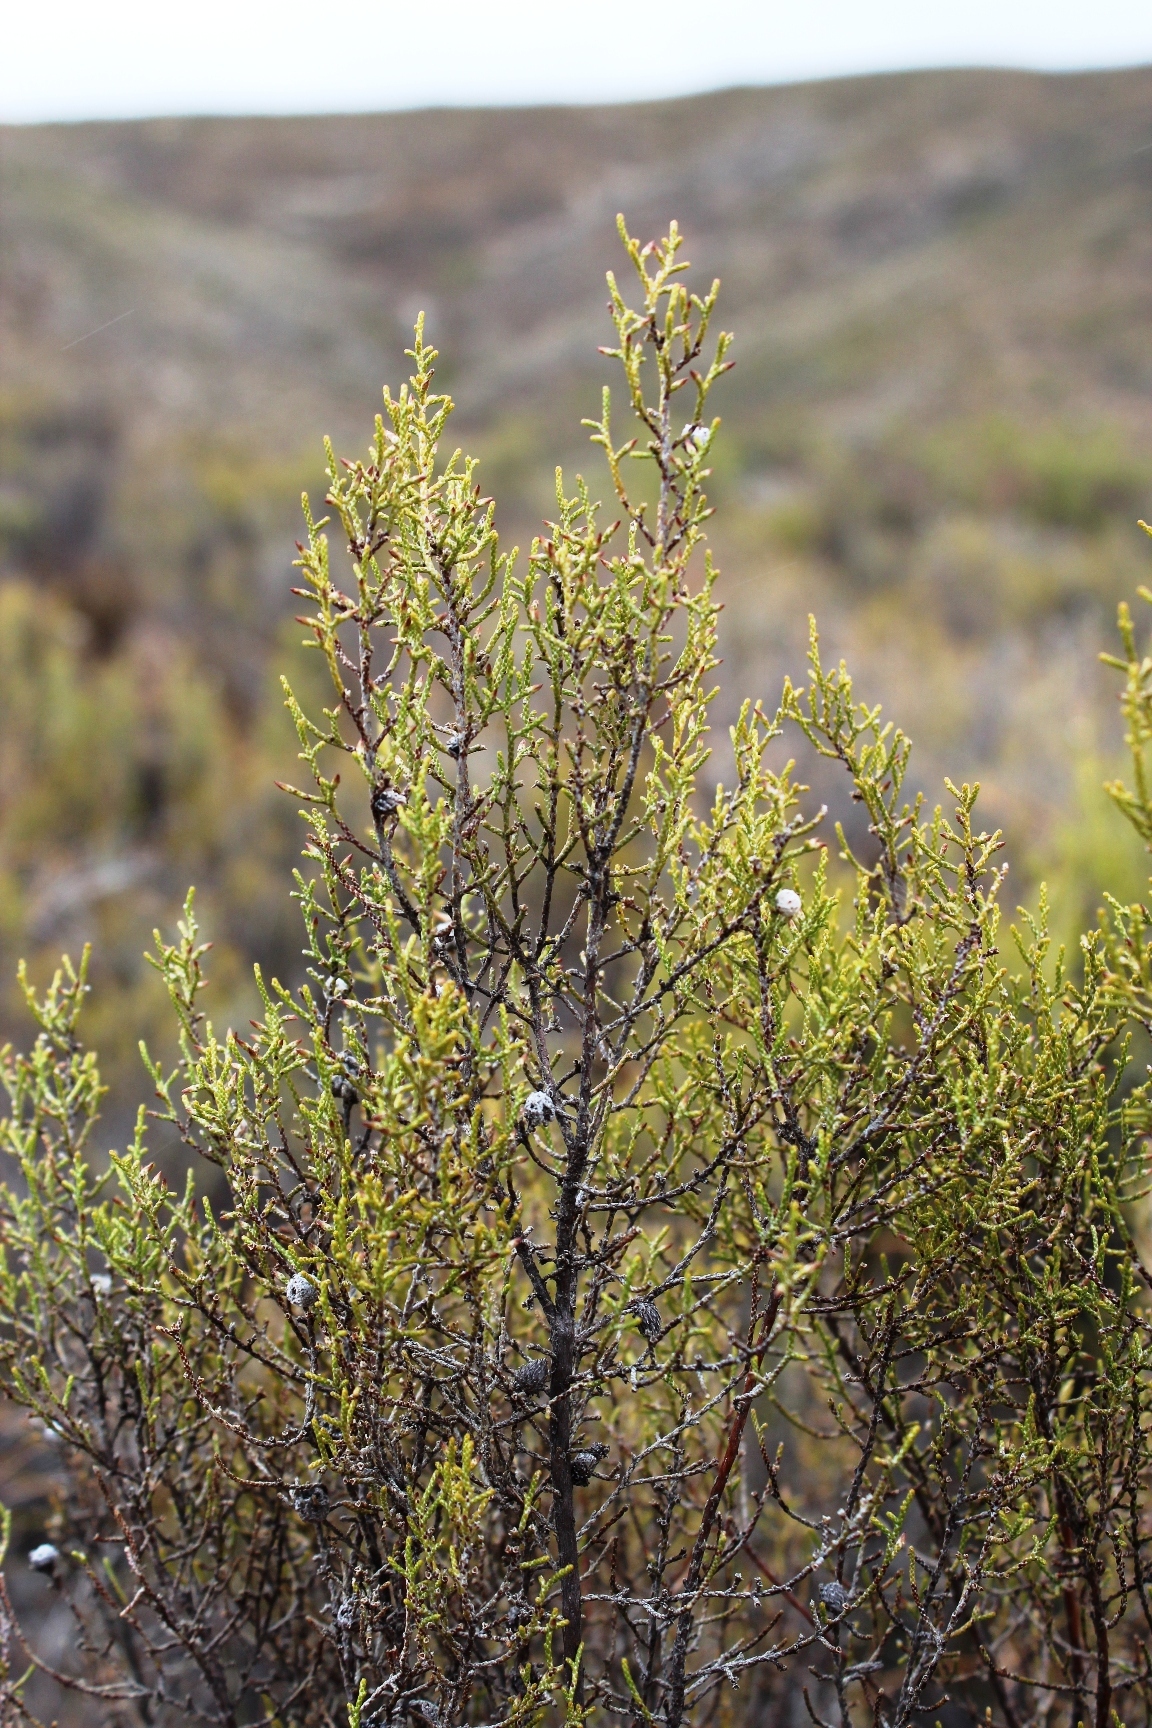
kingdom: Plantae
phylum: Tracheophyta
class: Magnoliopsida
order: Asterales
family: Asteraceae
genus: Dicerothamnus
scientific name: Dicerothamnus rhinocerotis
